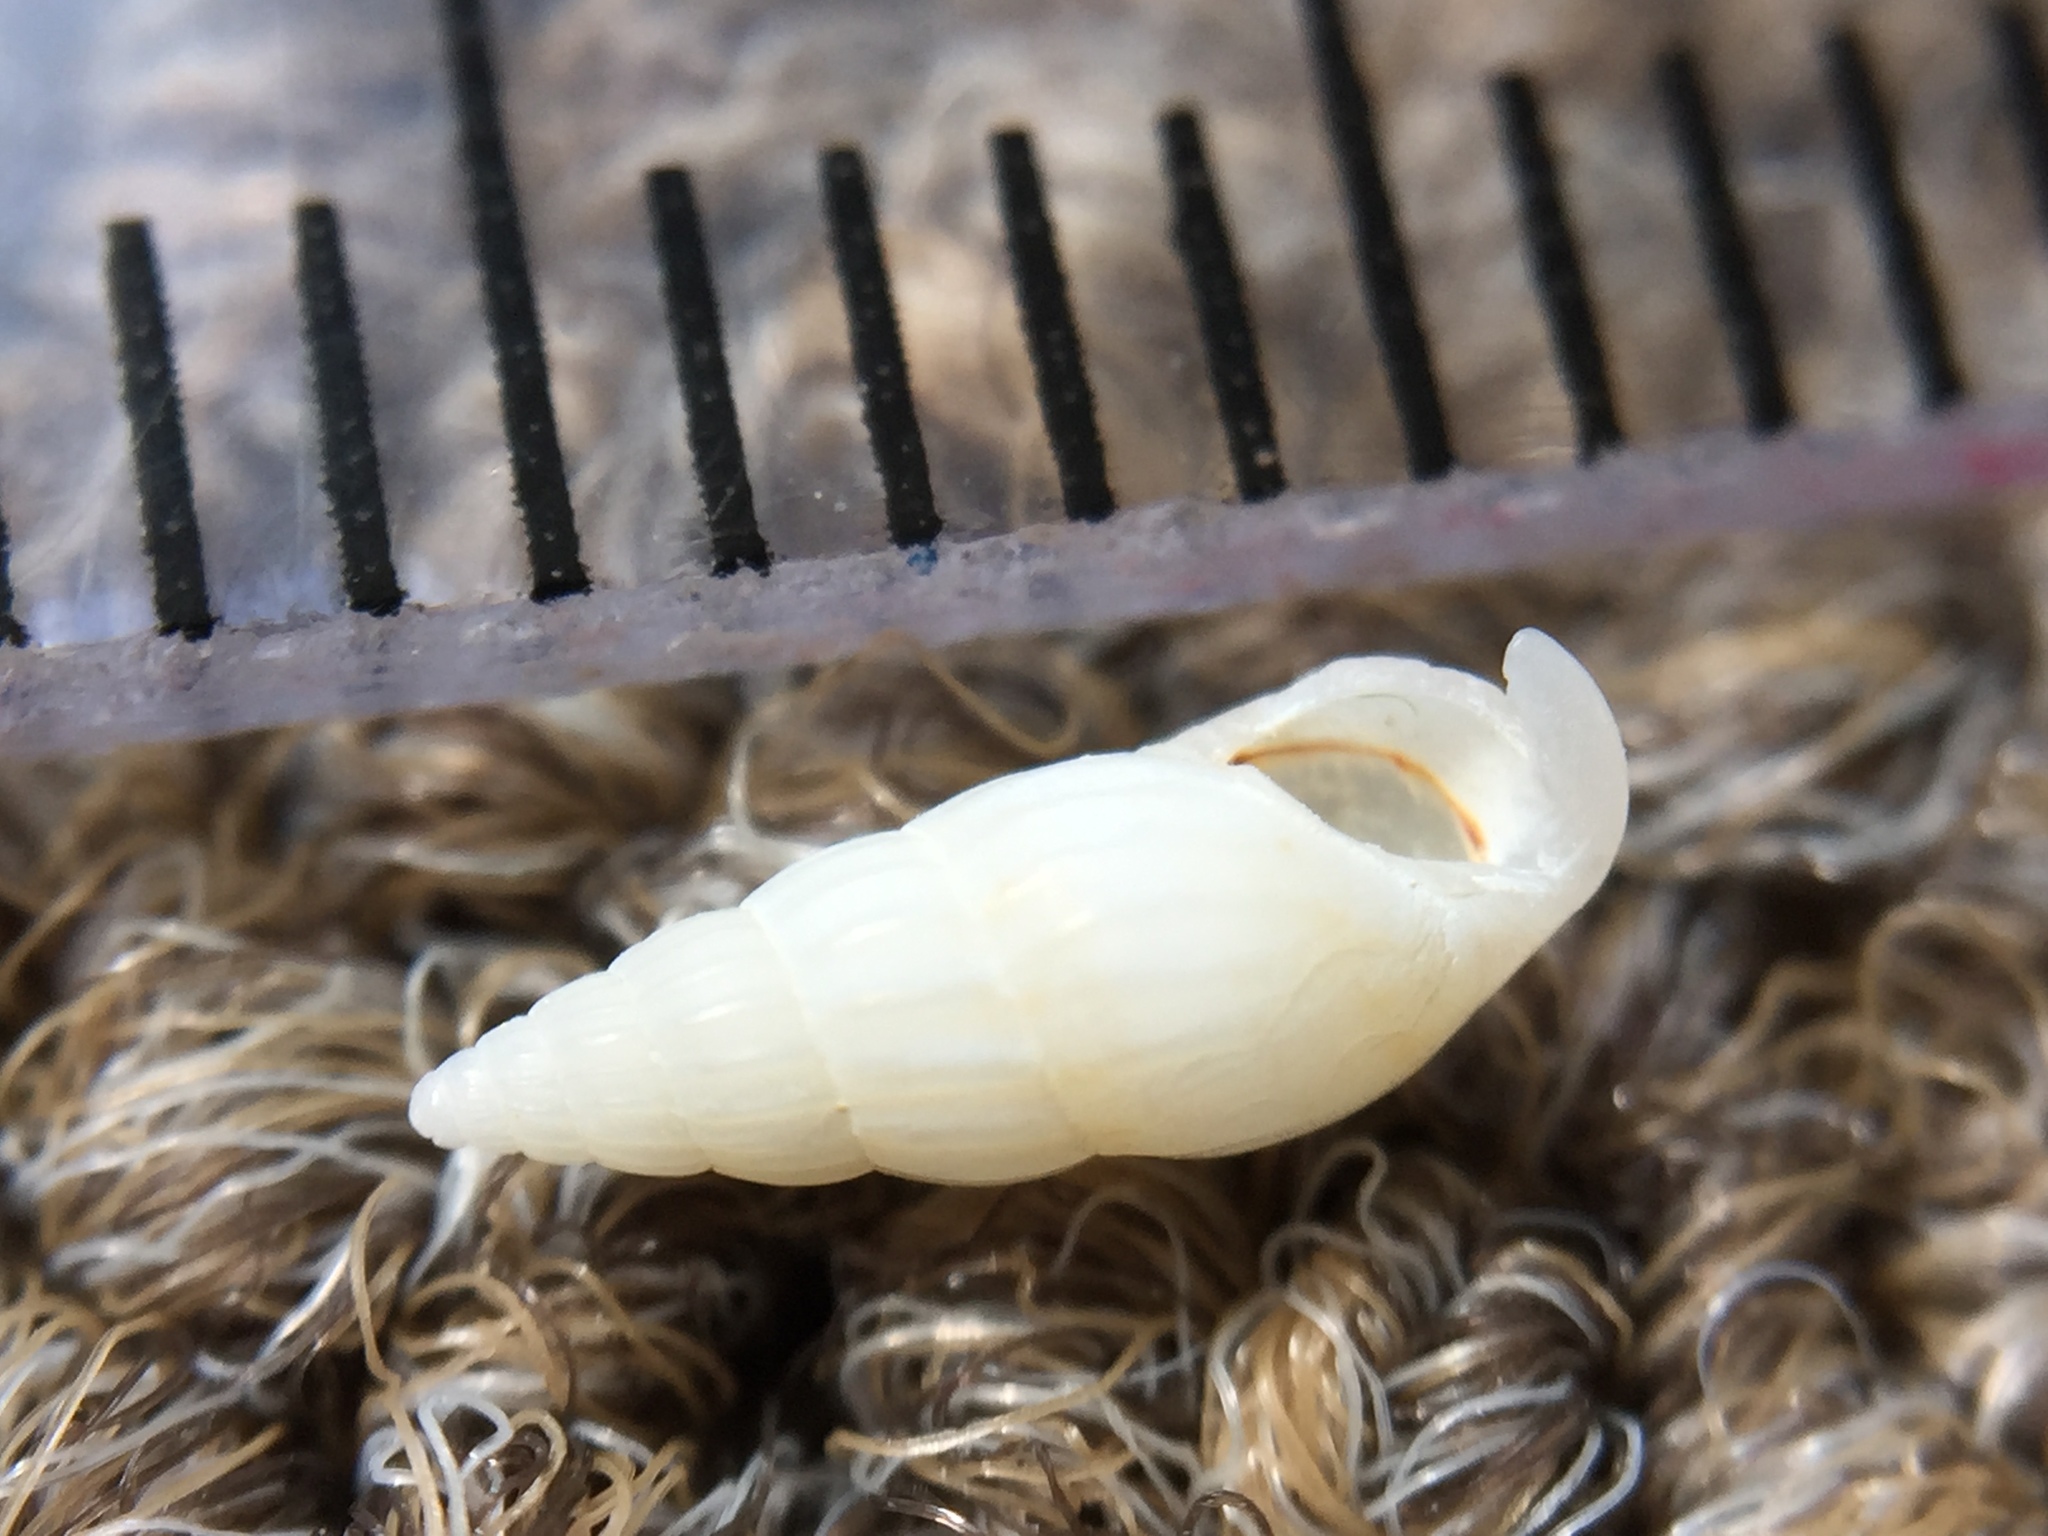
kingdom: Animalia
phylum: Mollusca
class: Gastropoda
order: Littorinimorpha
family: Rissoinidae
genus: Rissoina
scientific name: Rissoina anguina
